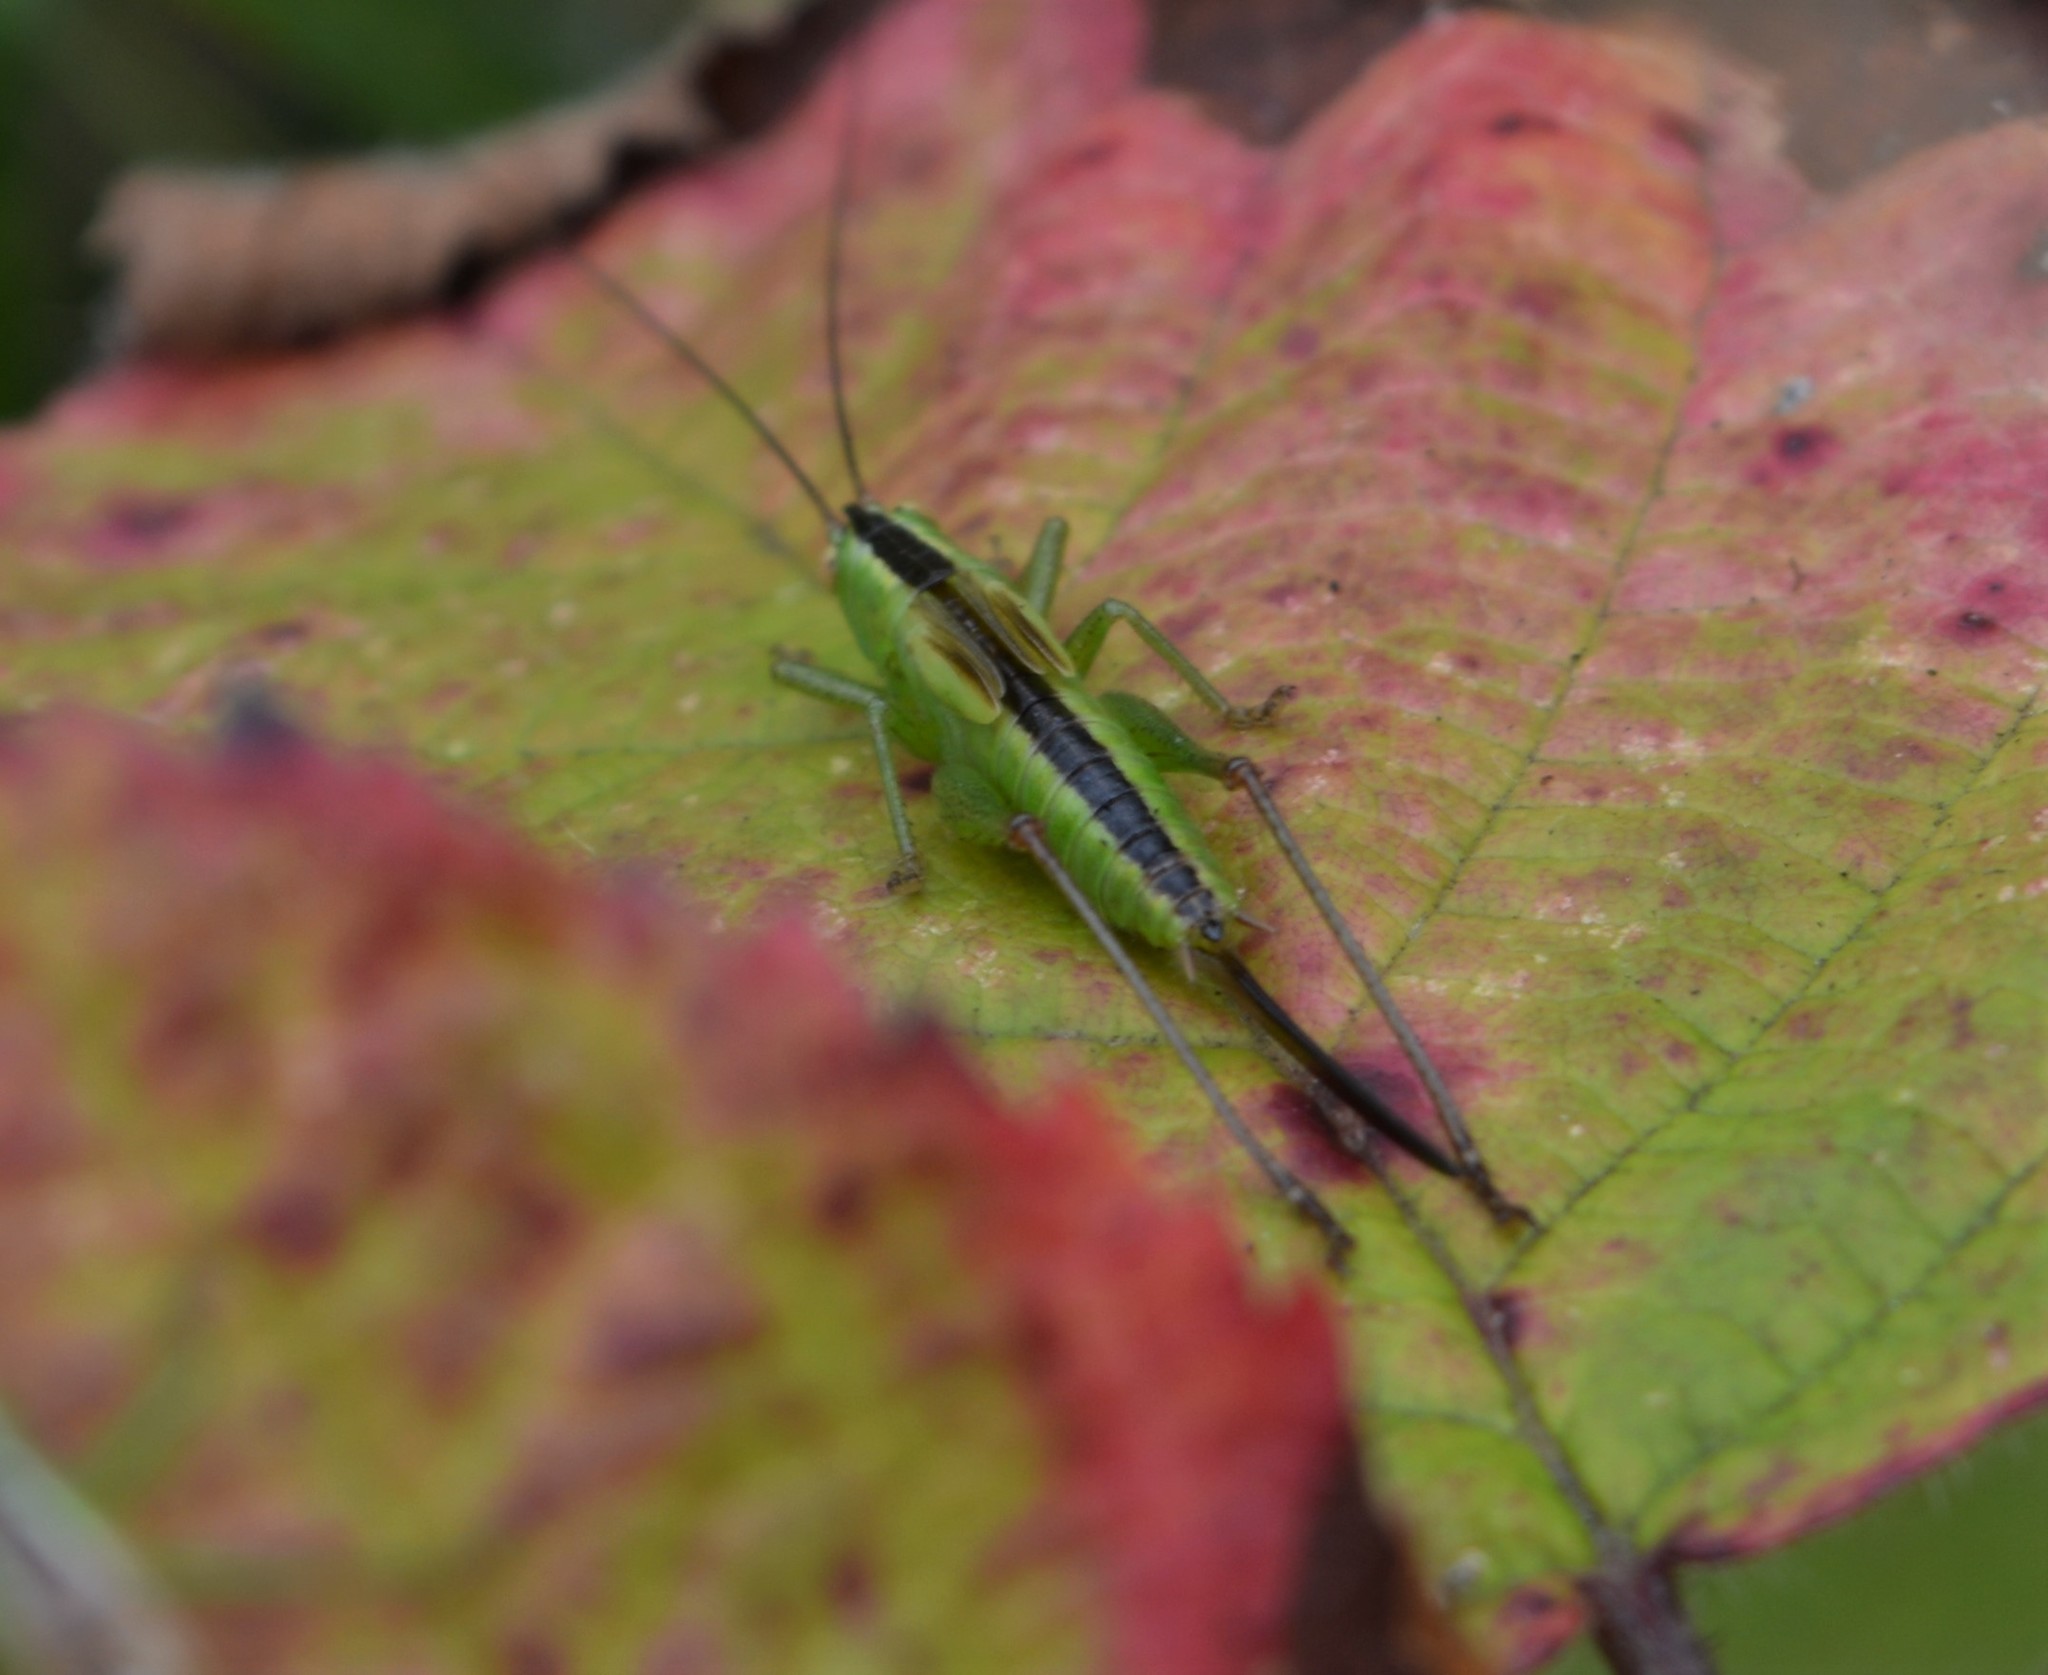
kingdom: Animalia
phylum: Arthropoda
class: Insecta
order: Orthoptera
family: Tettigoniidae
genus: Conocephalus
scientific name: Conocephalus fuscus
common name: Long-winged conehead
